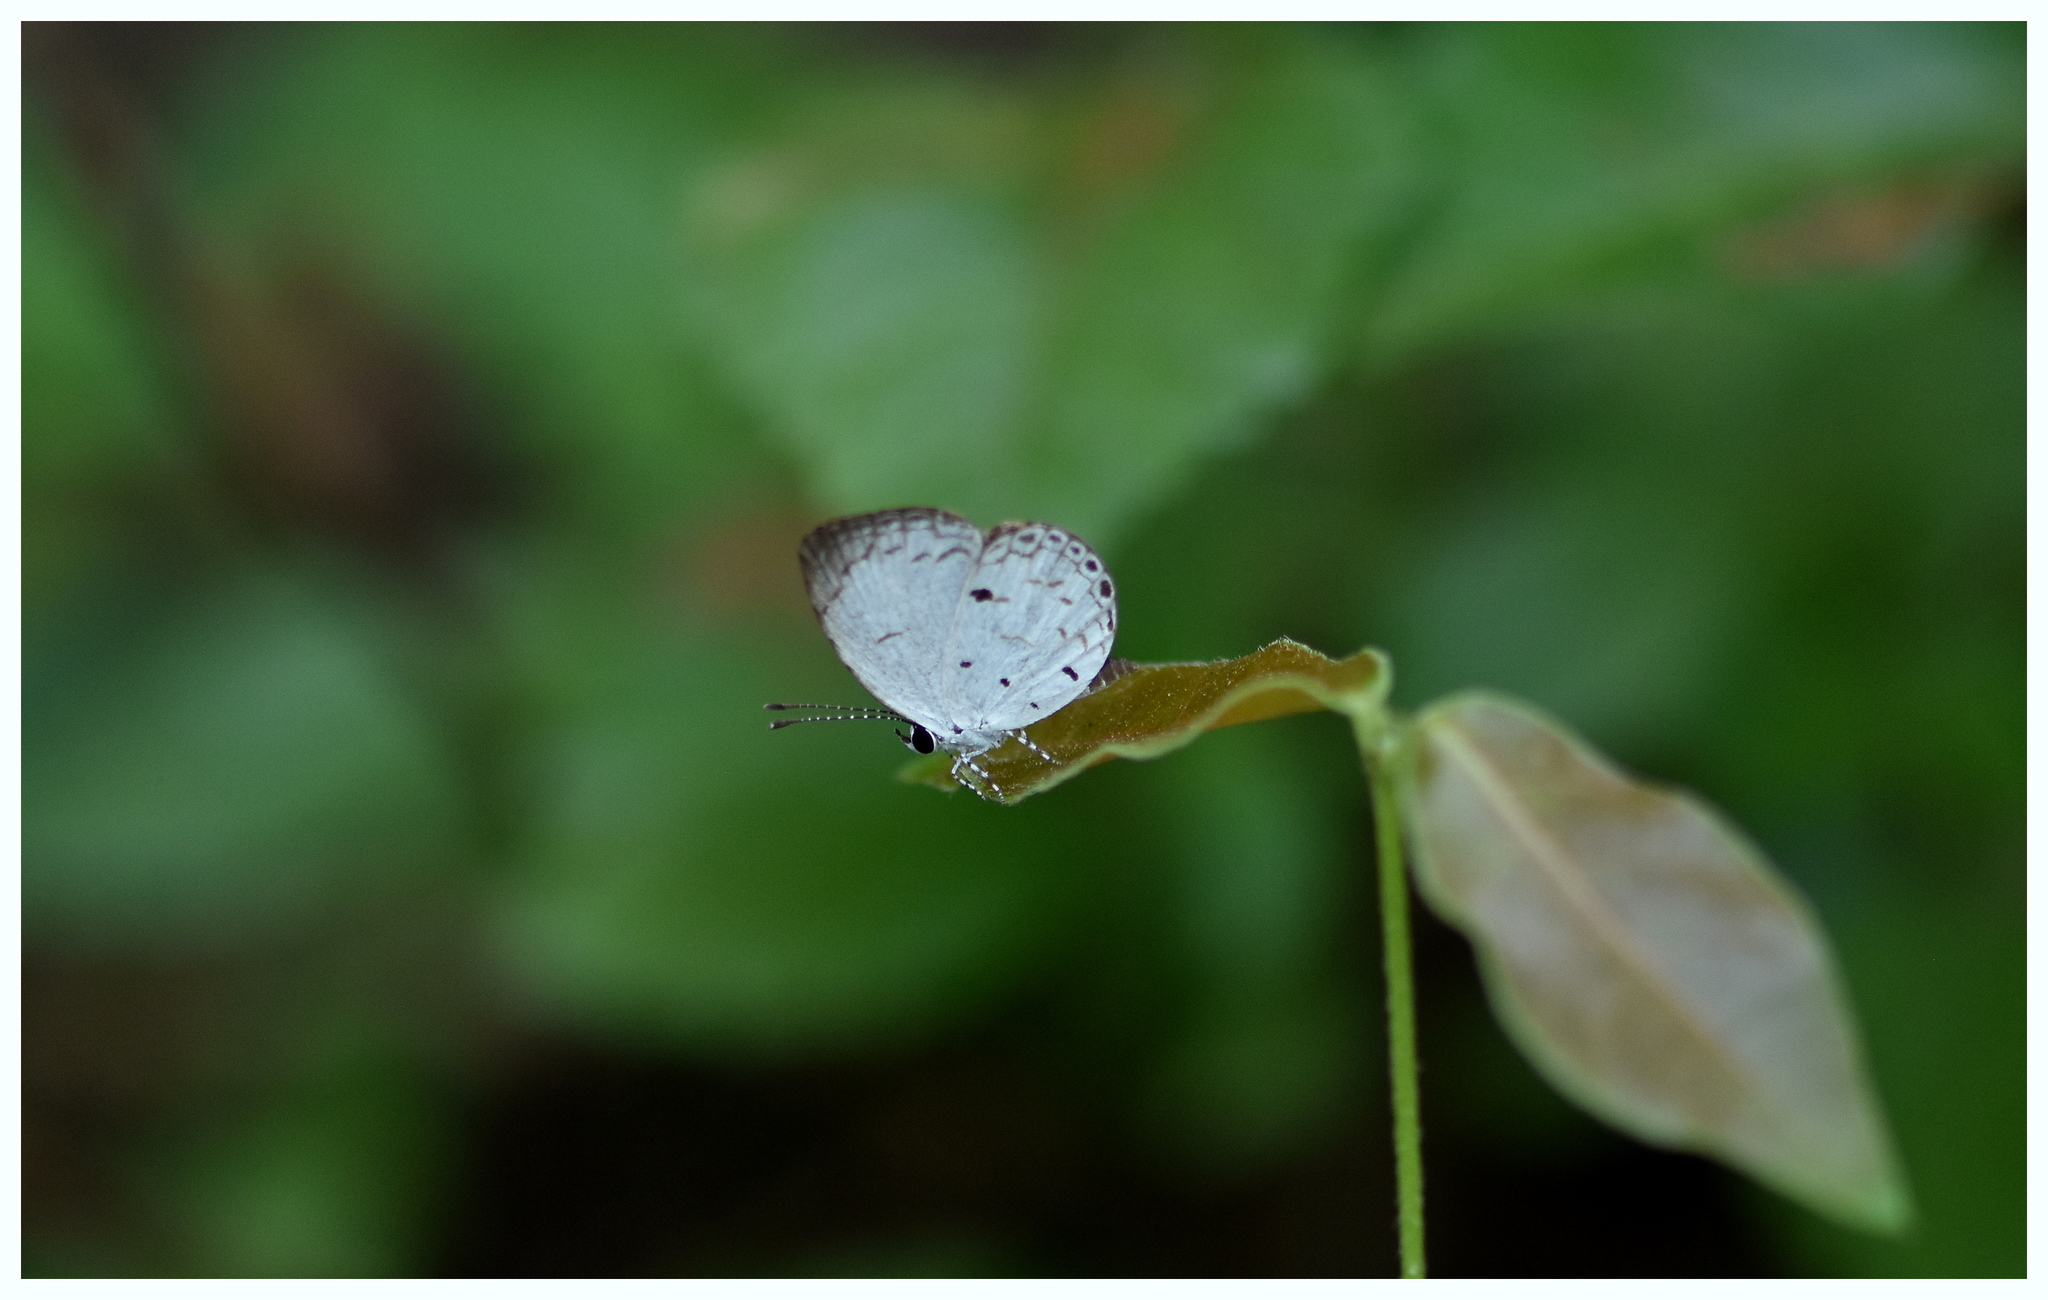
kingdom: Animalia
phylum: Arthropoda
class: Insecta
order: Lepidoptera
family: Lycaenidae
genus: Neopithecops
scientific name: Neopithecops zalmora
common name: Quaker
